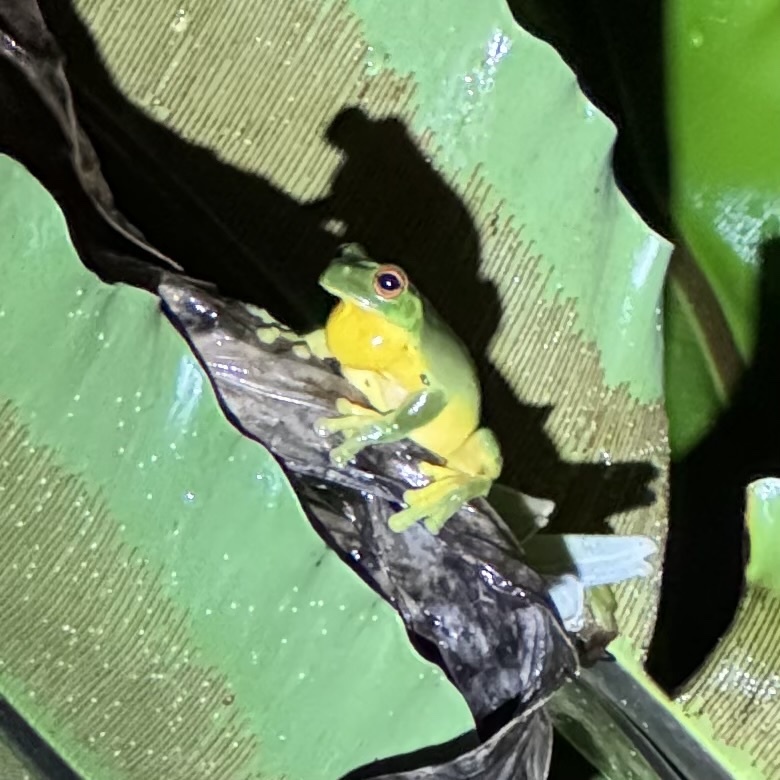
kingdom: Animalia
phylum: Chordata
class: Amphibia
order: Anura
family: Pelodryadidae
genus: Ranoidea
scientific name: Ranoidea chloris
